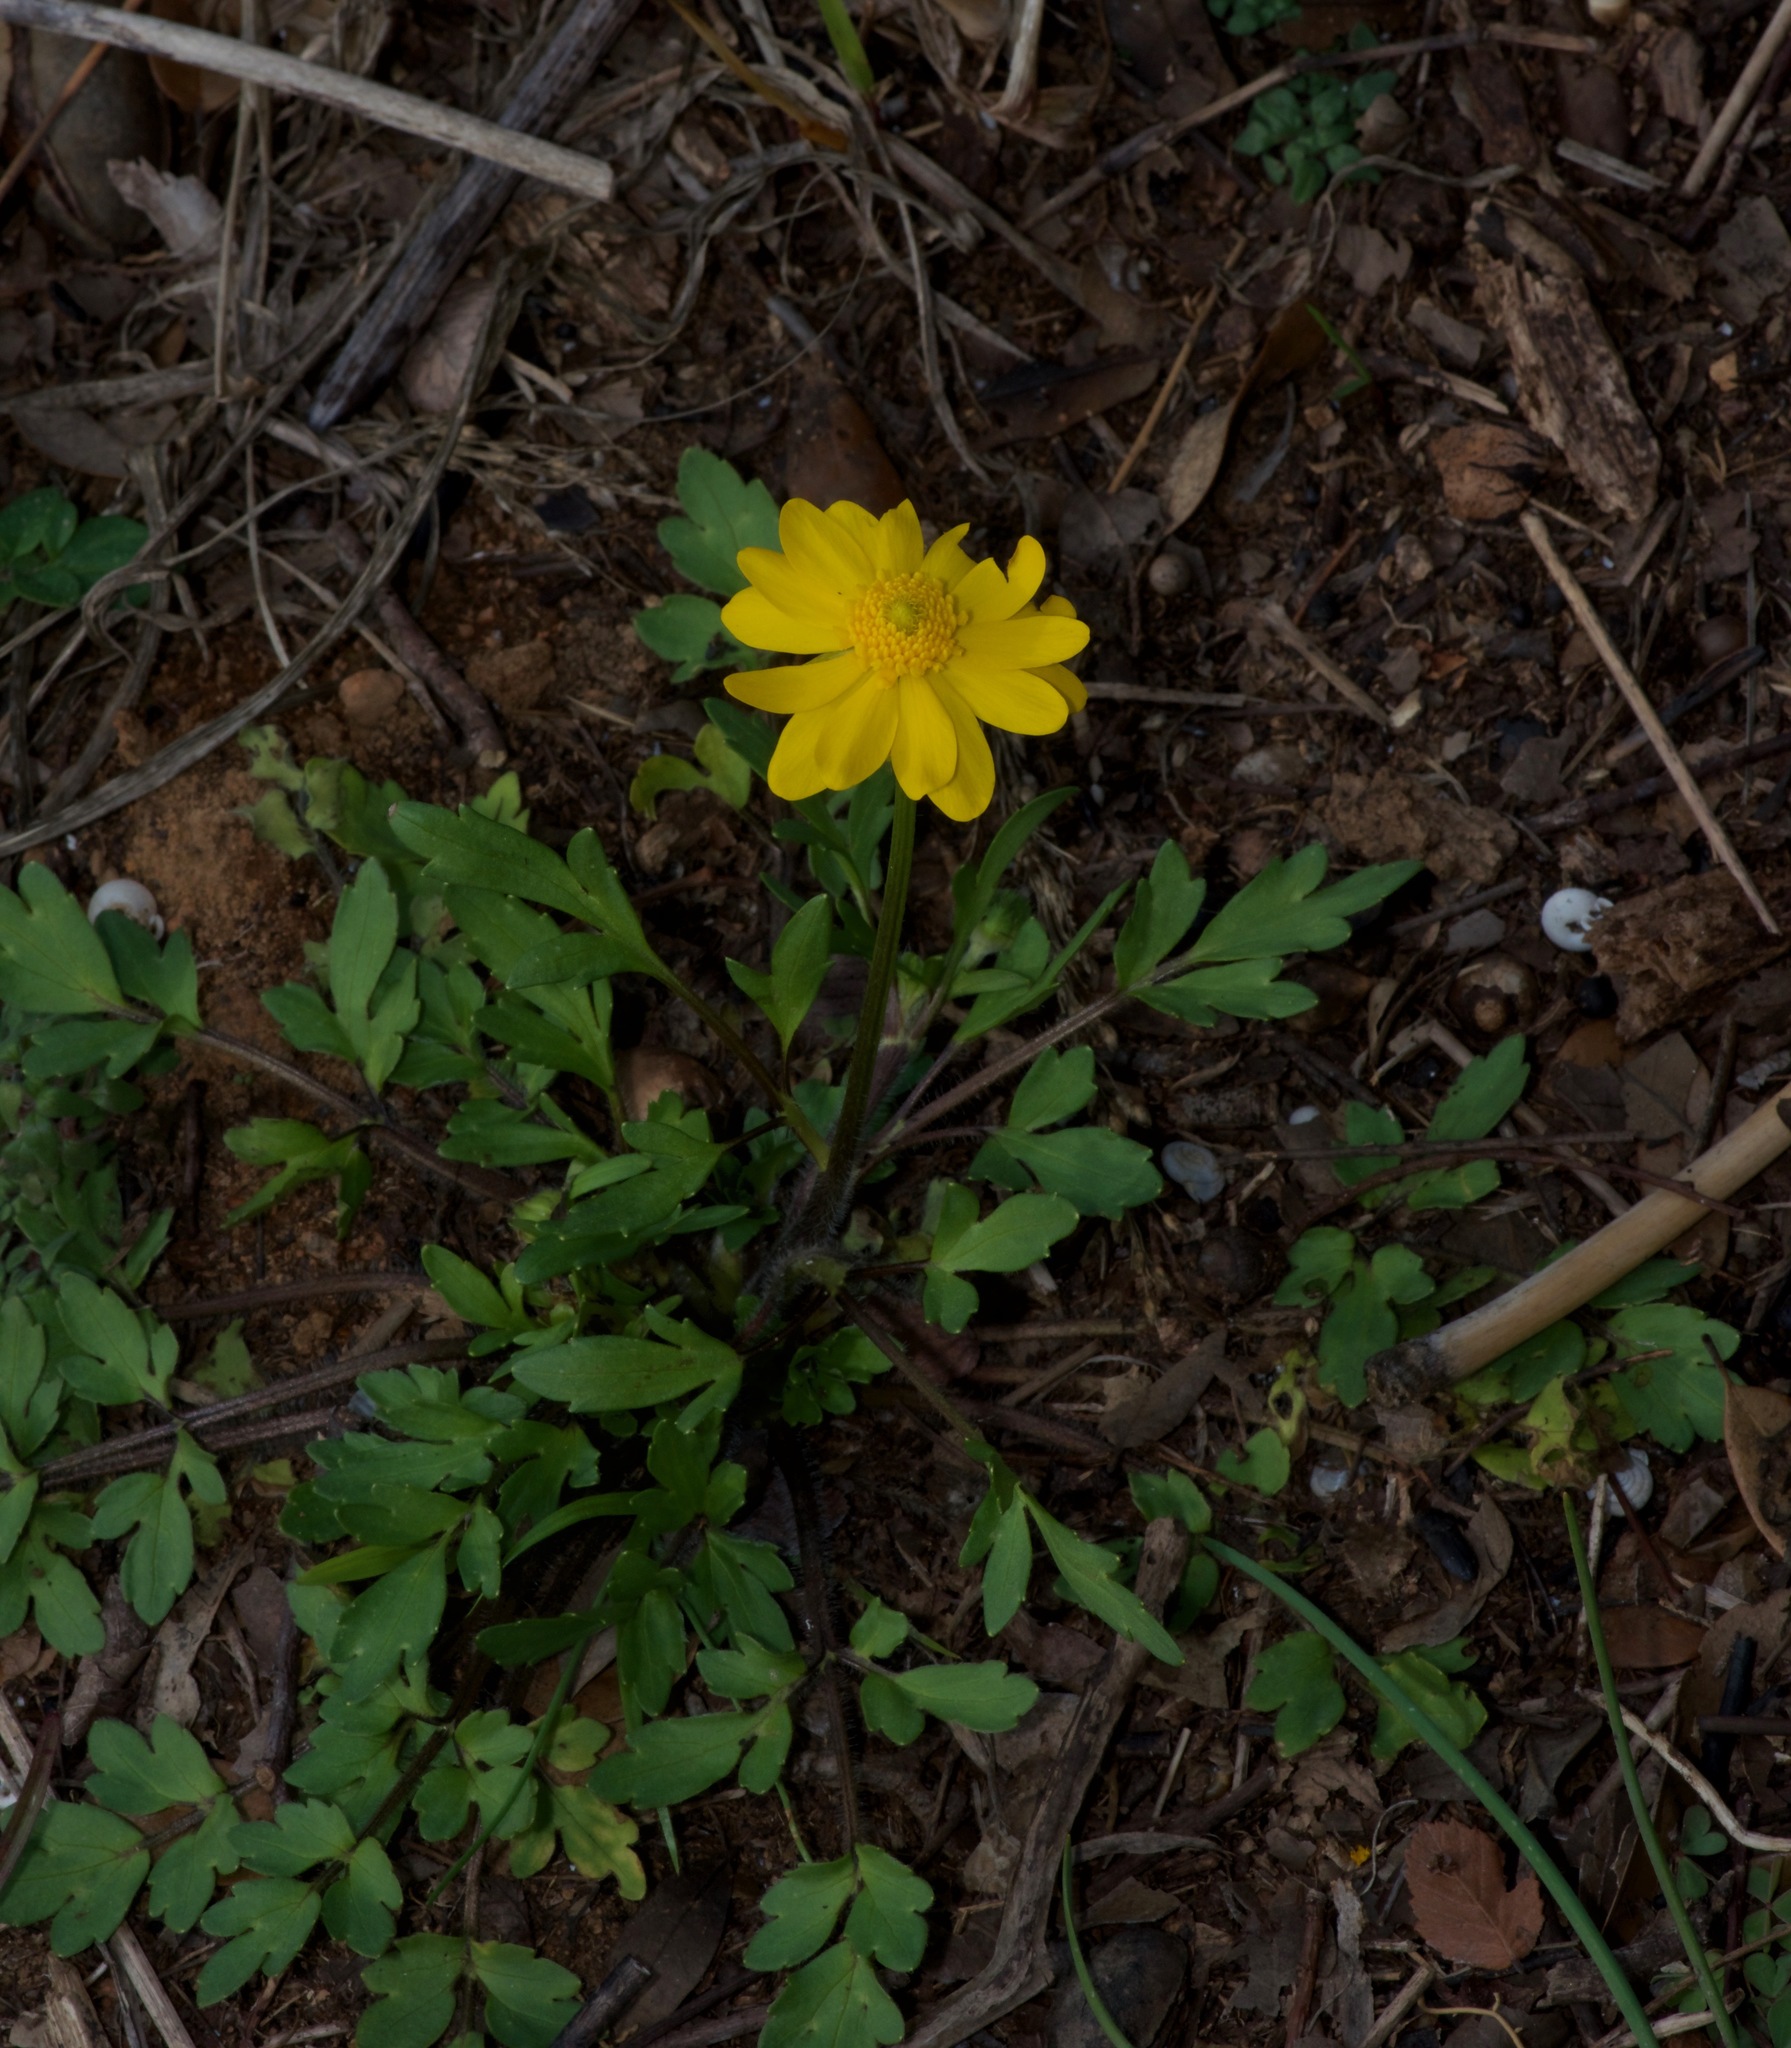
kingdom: Plantae
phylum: Tracheophyta
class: Magnoliopsida
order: Ranunculales
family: Ranunculaceae
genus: Ranunculus
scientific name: Ranunculus macranthus
